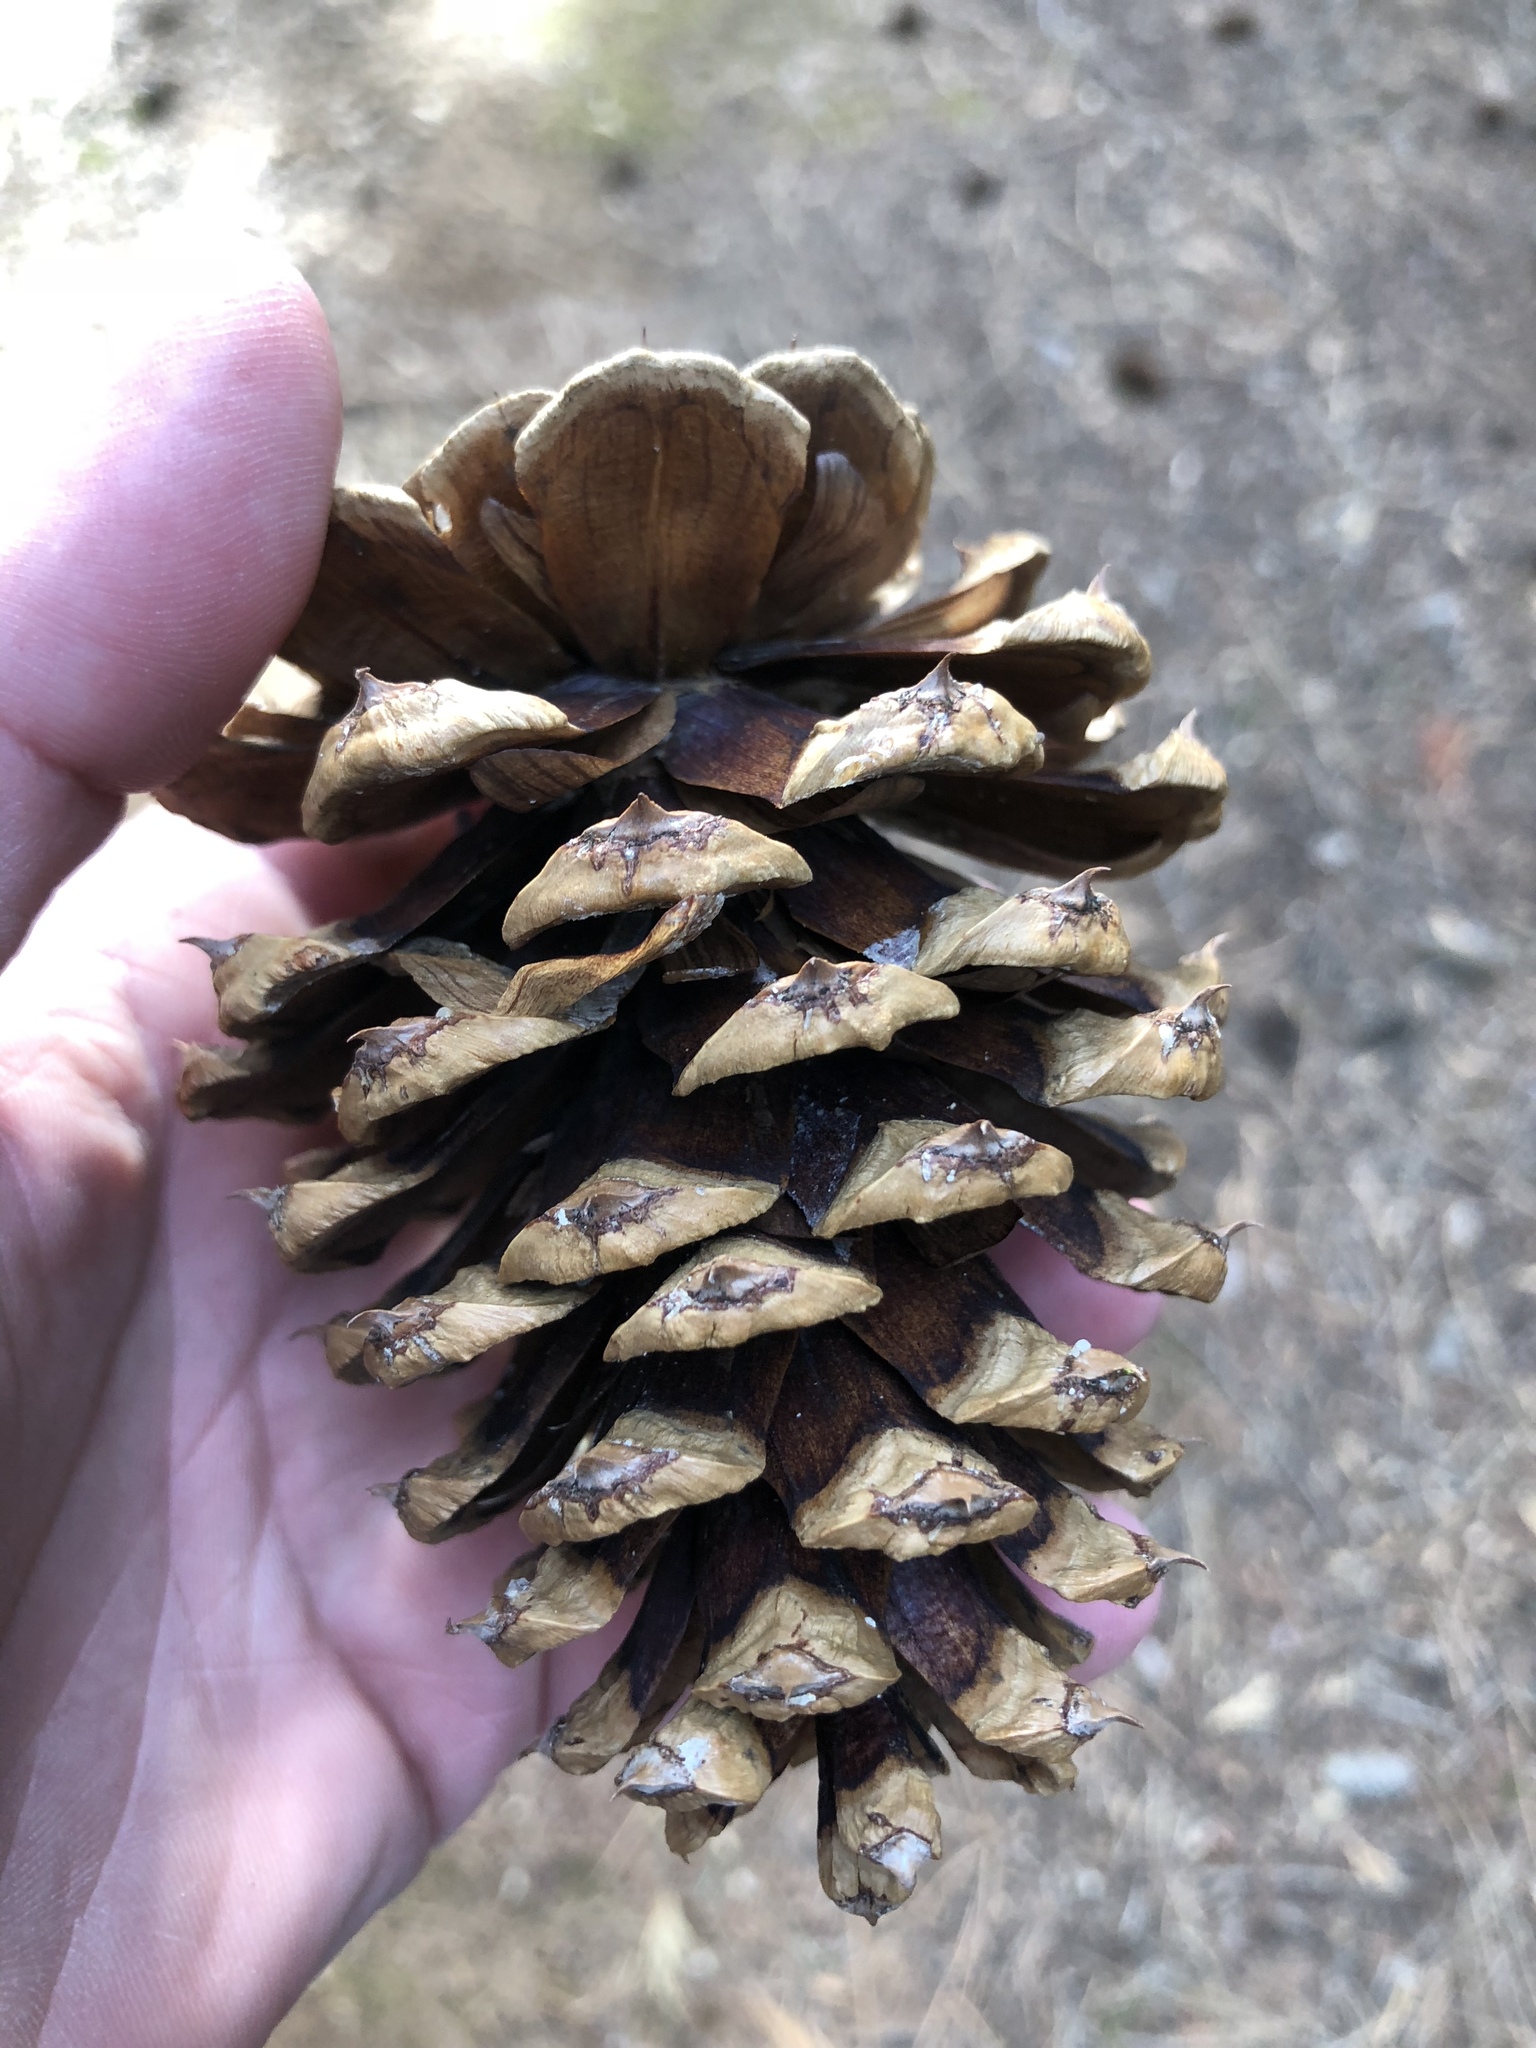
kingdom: Plantae
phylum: Tracheophyta
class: Pinopsida
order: Pinales
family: Pinaceae
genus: Pinus
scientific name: Pinus ponderosa
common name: Western yellow-pine
